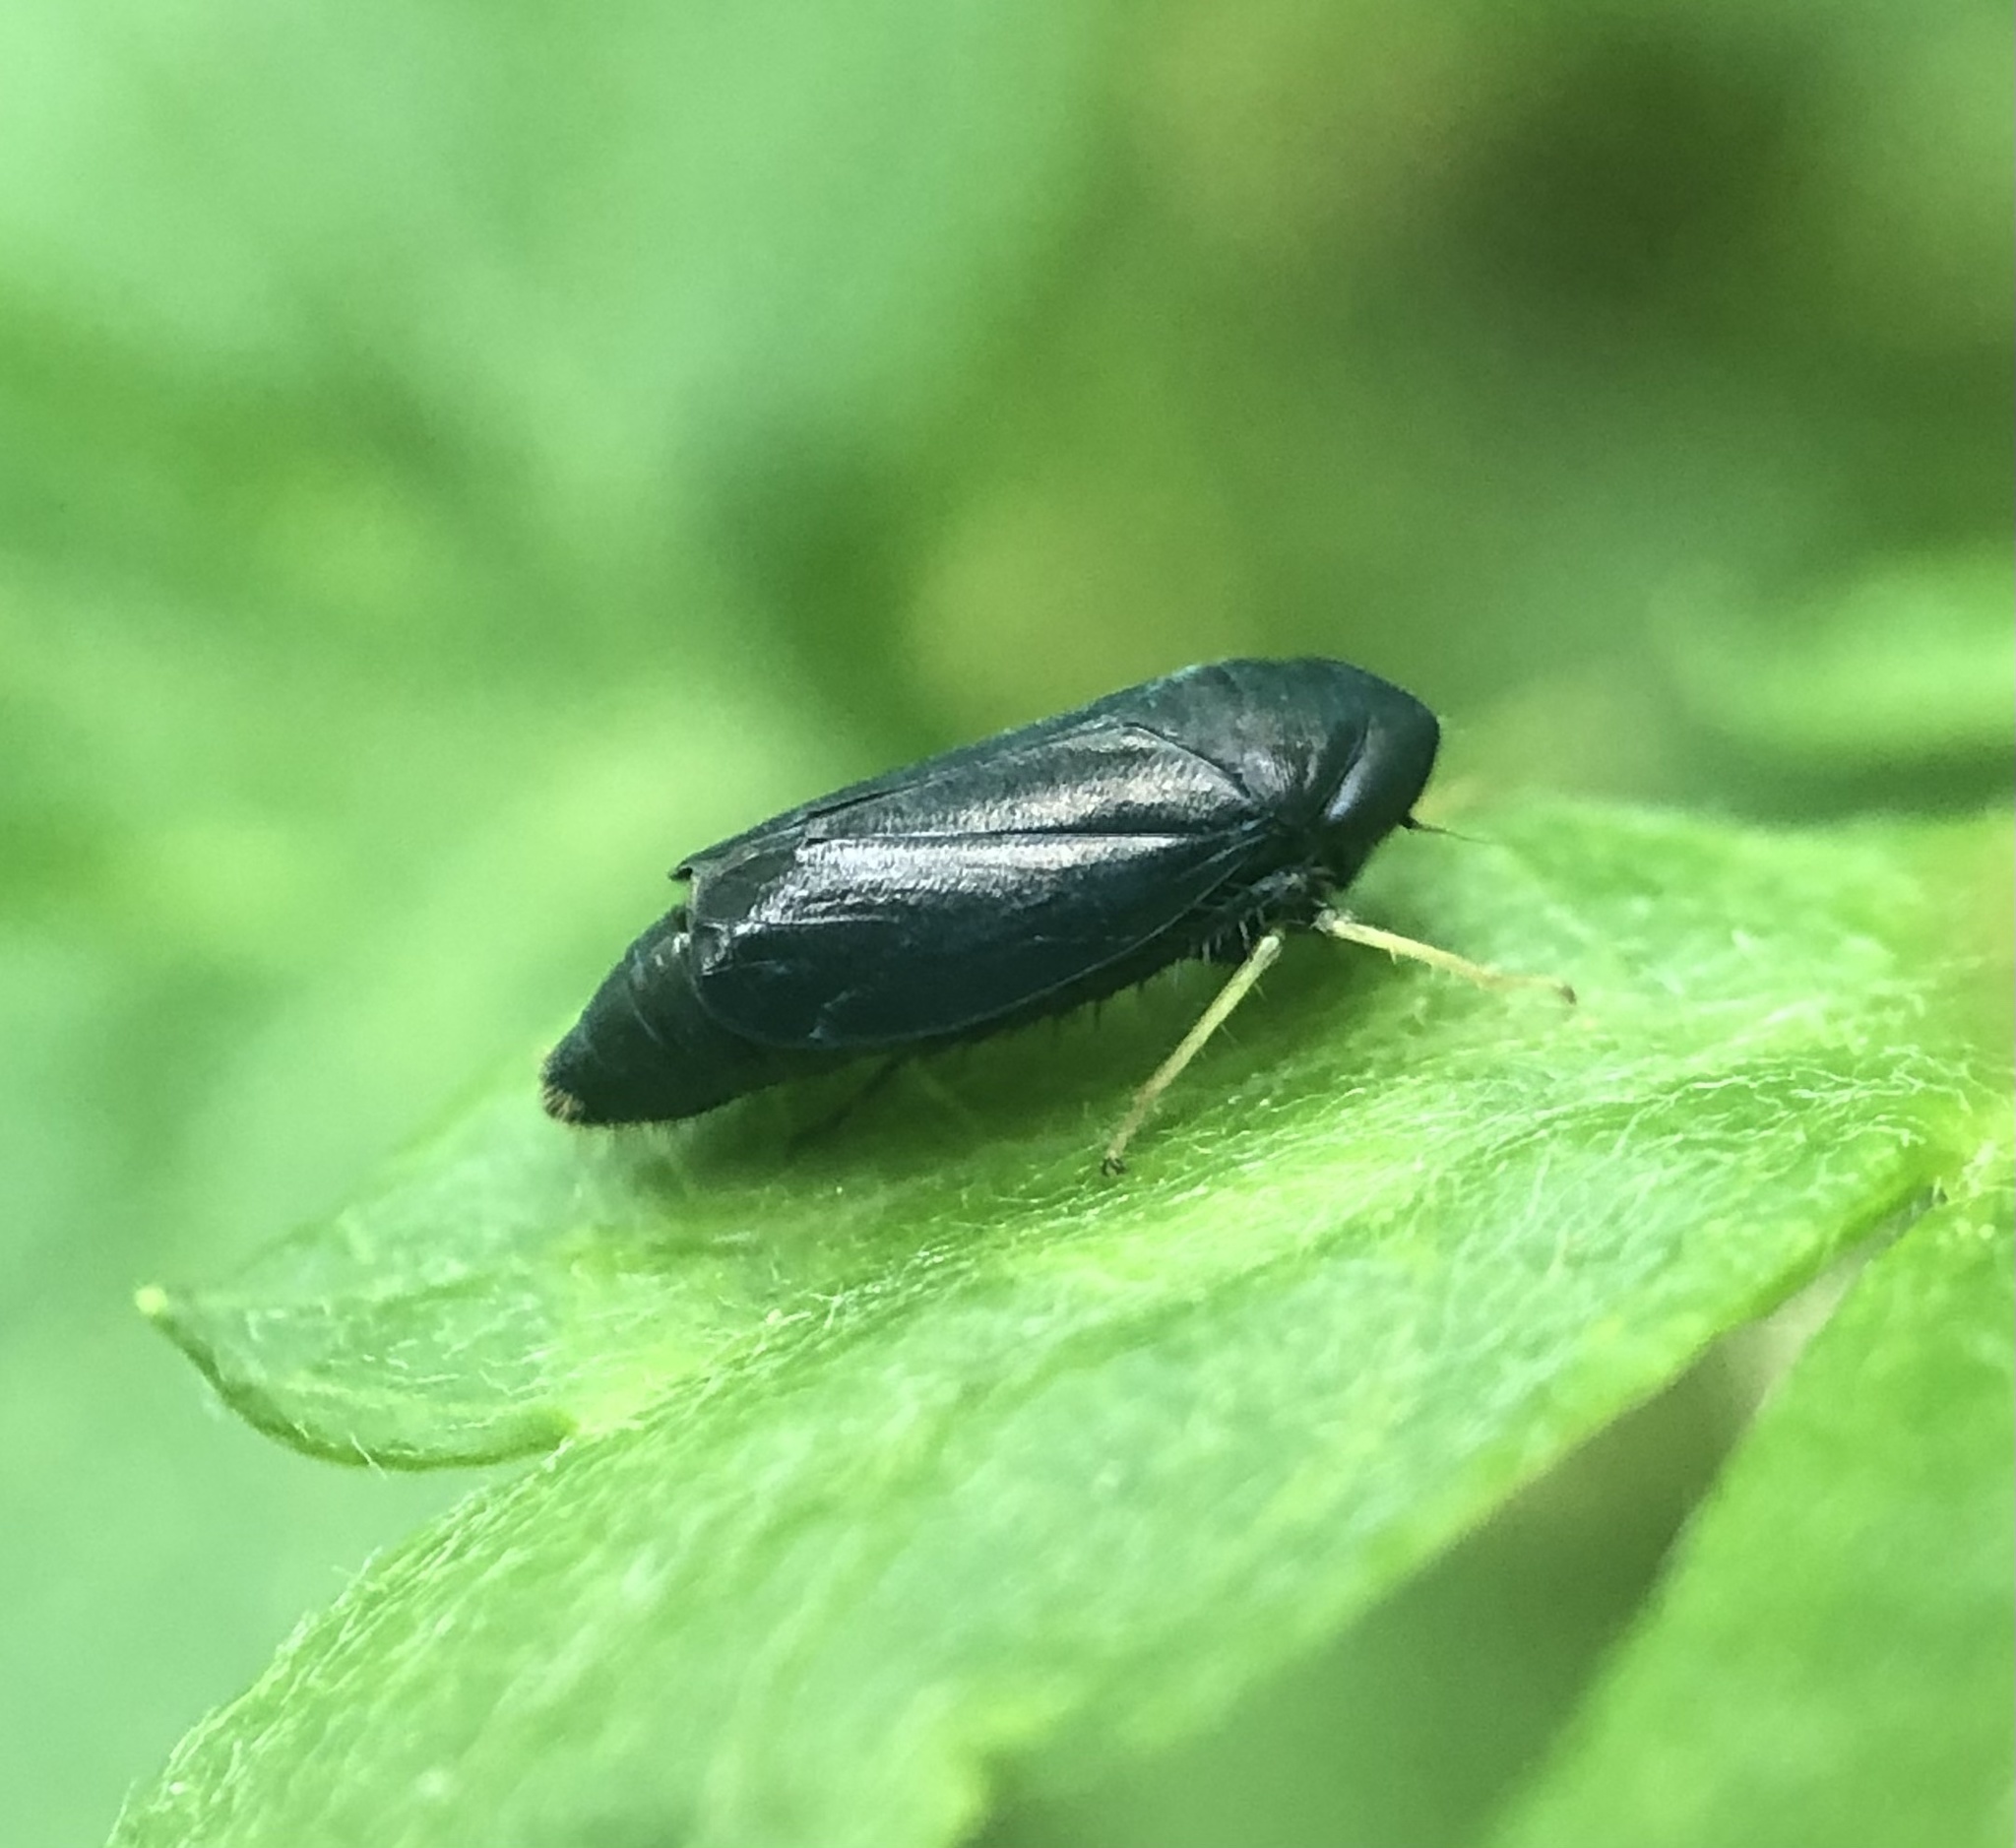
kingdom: Animalia
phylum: Arthropoda
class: Insecta
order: Hemiptera
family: Cicadellidae
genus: Scleroracus
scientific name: Scleroracus anthracinus
